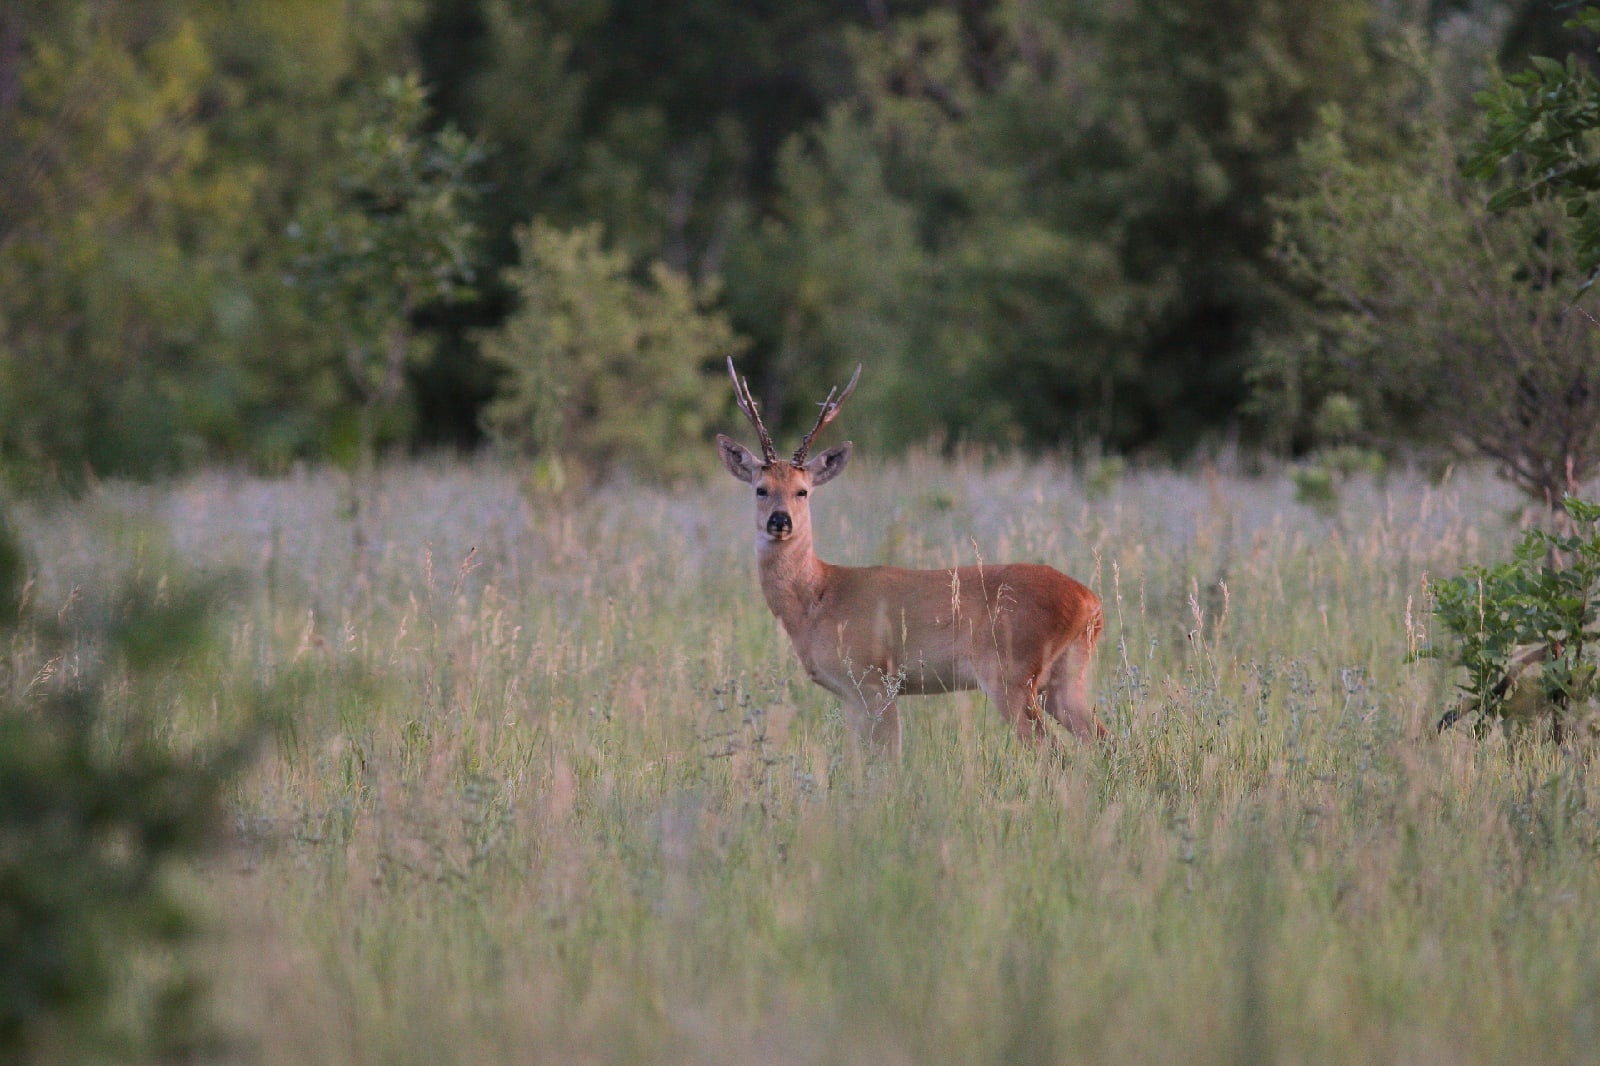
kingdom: Animalia
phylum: Chordata
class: Mammalia
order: Artiodactyla
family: Cervidae
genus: Capreolus
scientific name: Capreolus pygargus
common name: Siberian roe
